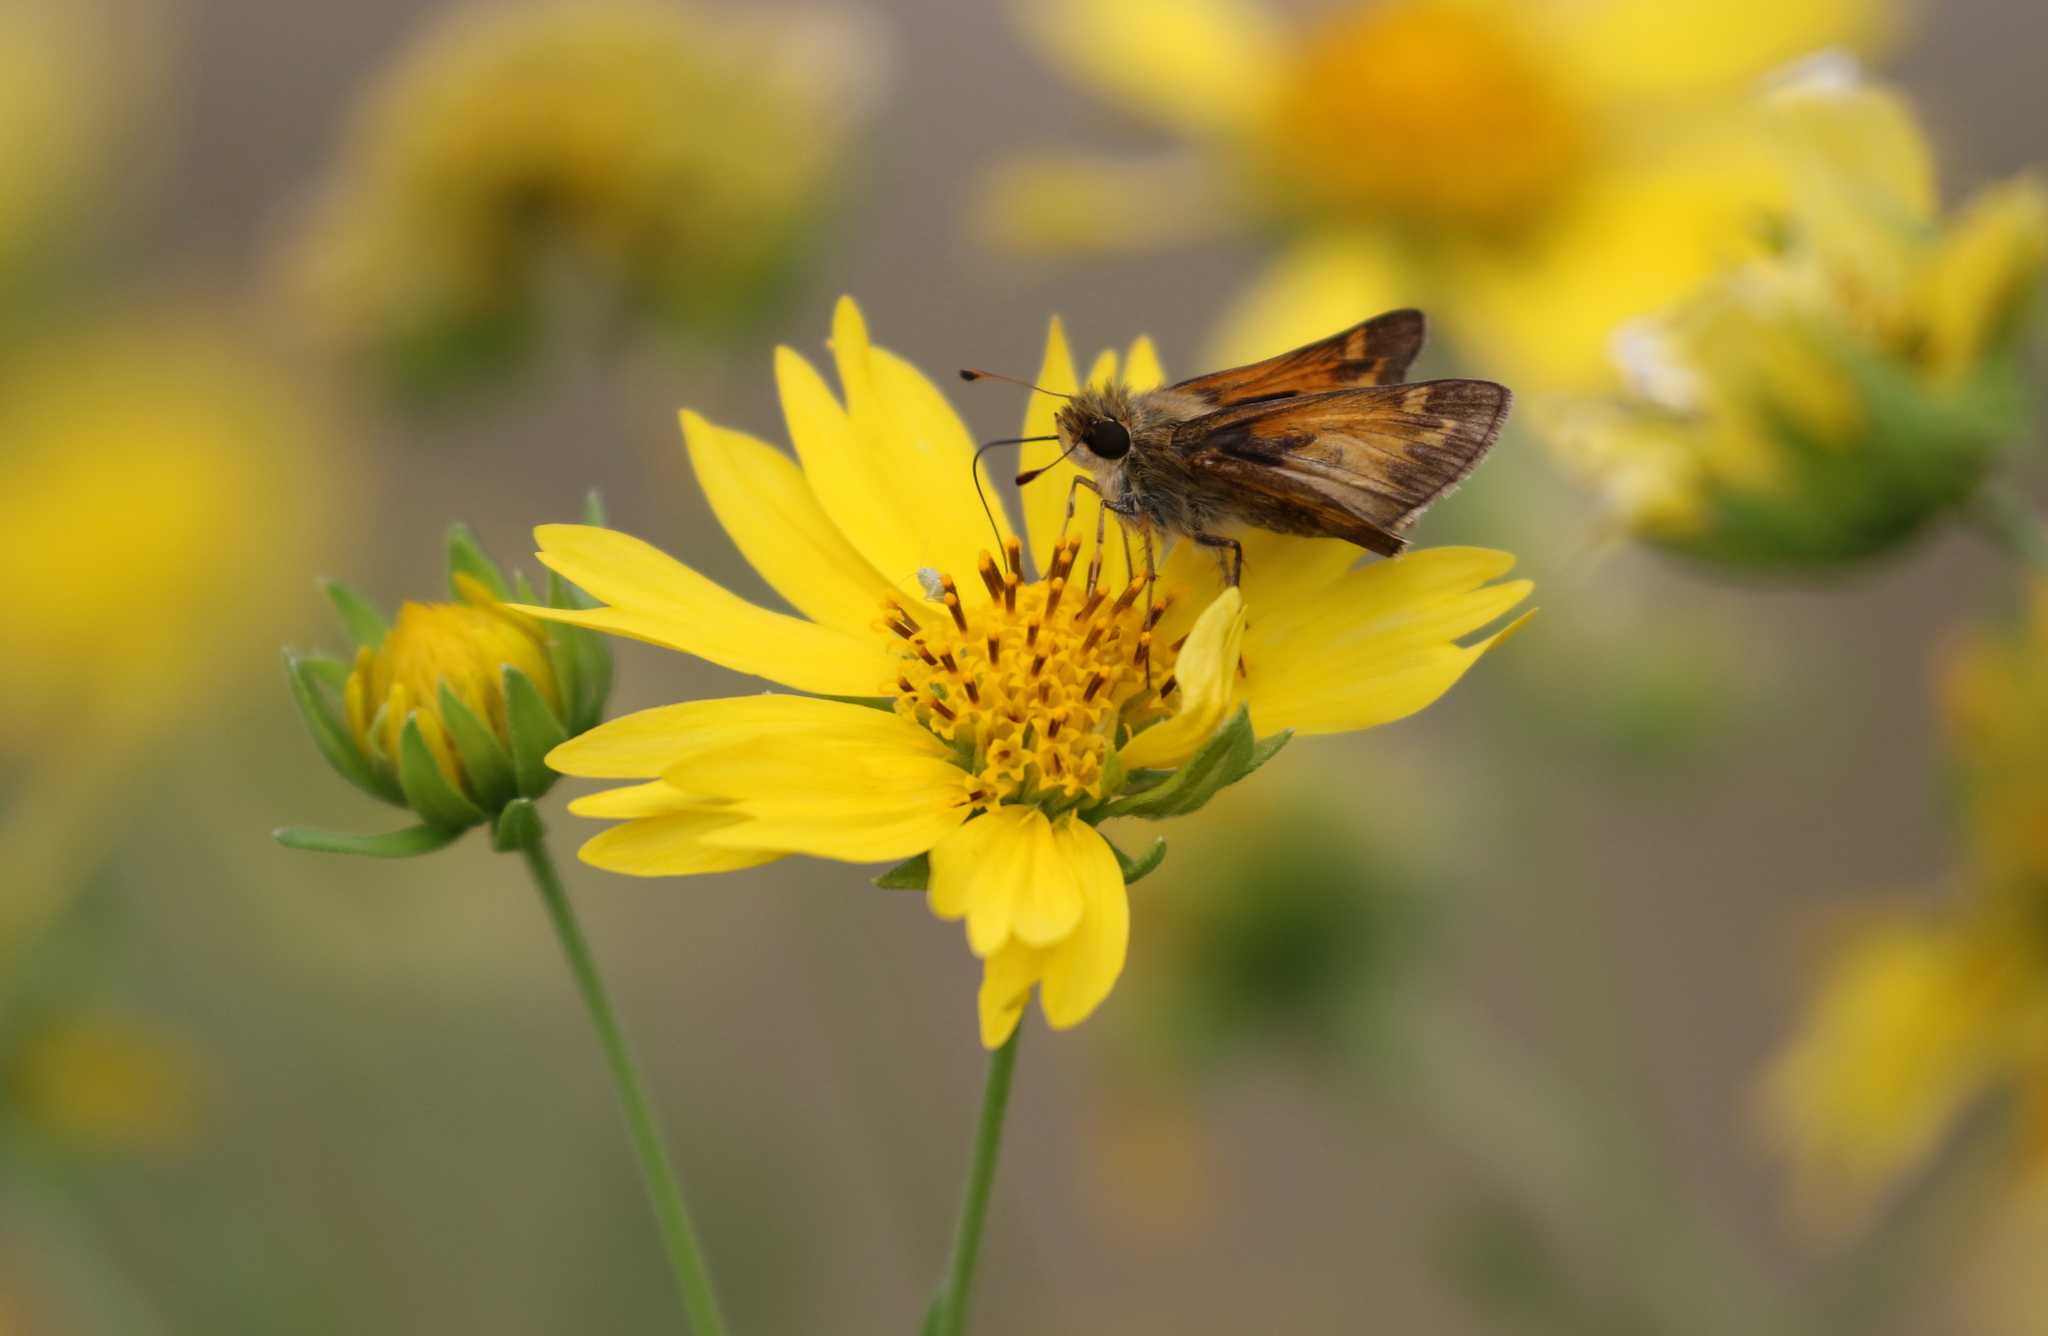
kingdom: Animalia
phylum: Arthropoda
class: Insecta
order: Lepidoptera
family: Hesperiidae
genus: Atalopedes
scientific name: Atalopedes
